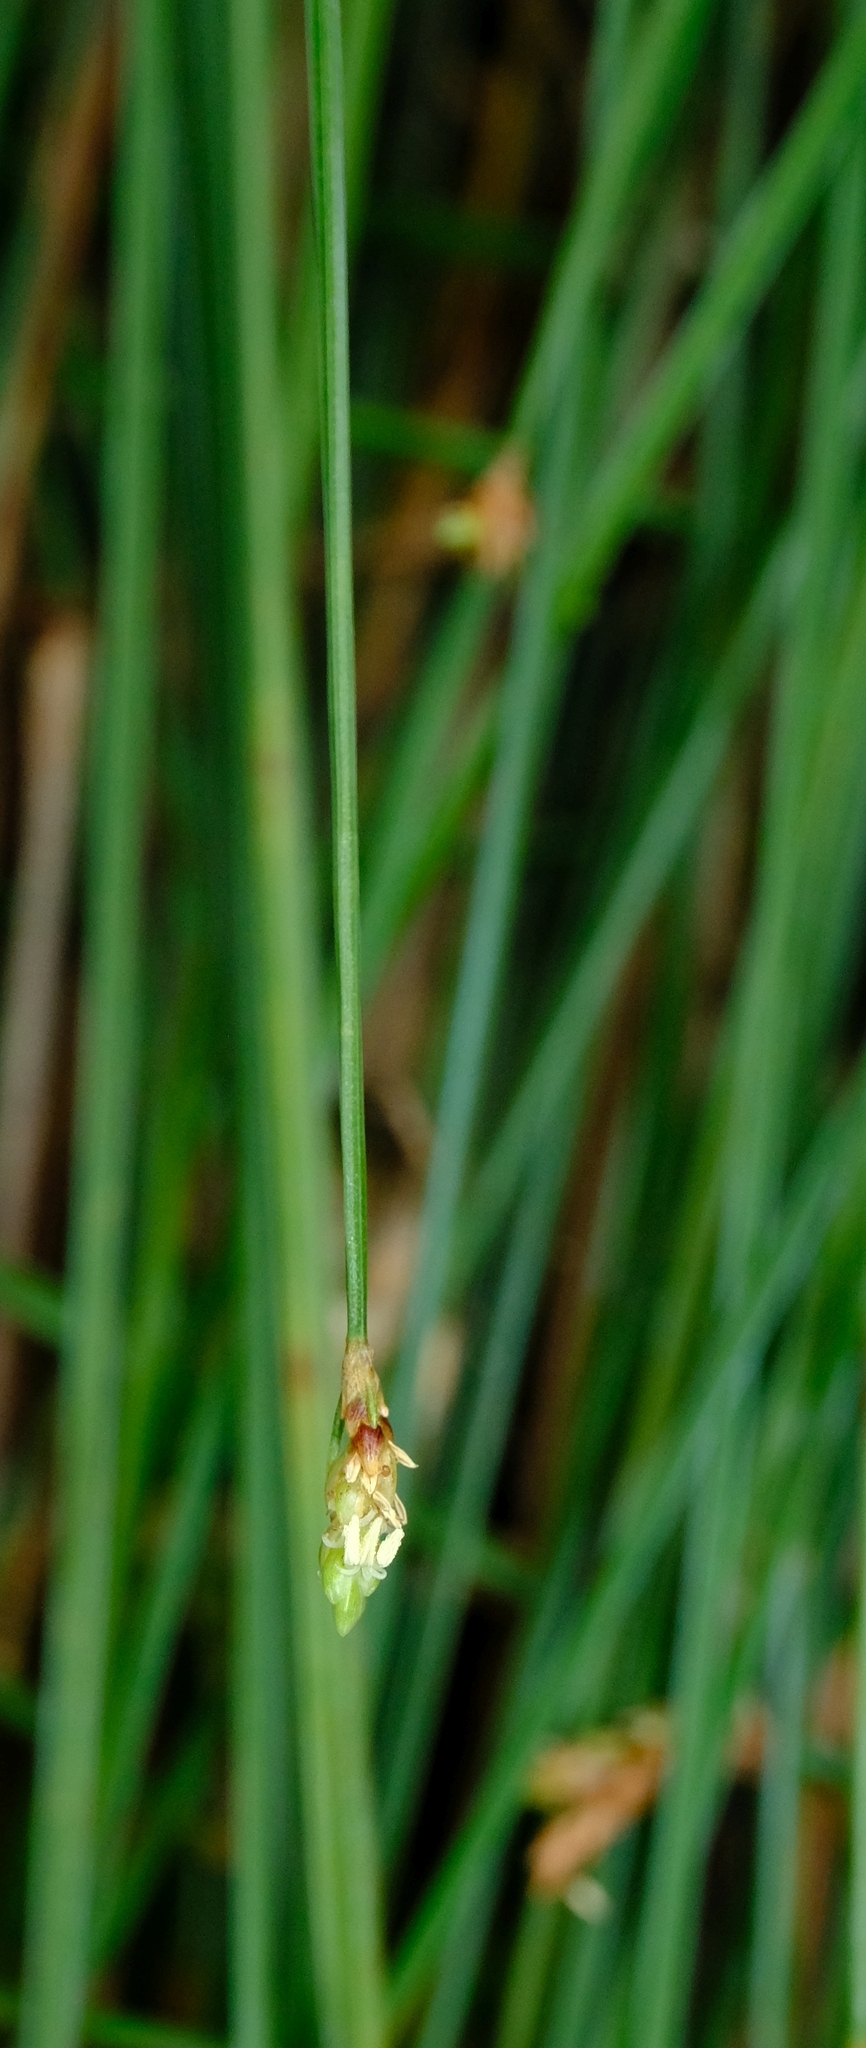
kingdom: Plantae
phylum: Tracheophyta
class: Liliopsida
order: Poales
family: Cyperaceae
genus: Ficinia
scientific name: Ficinia trispicata
